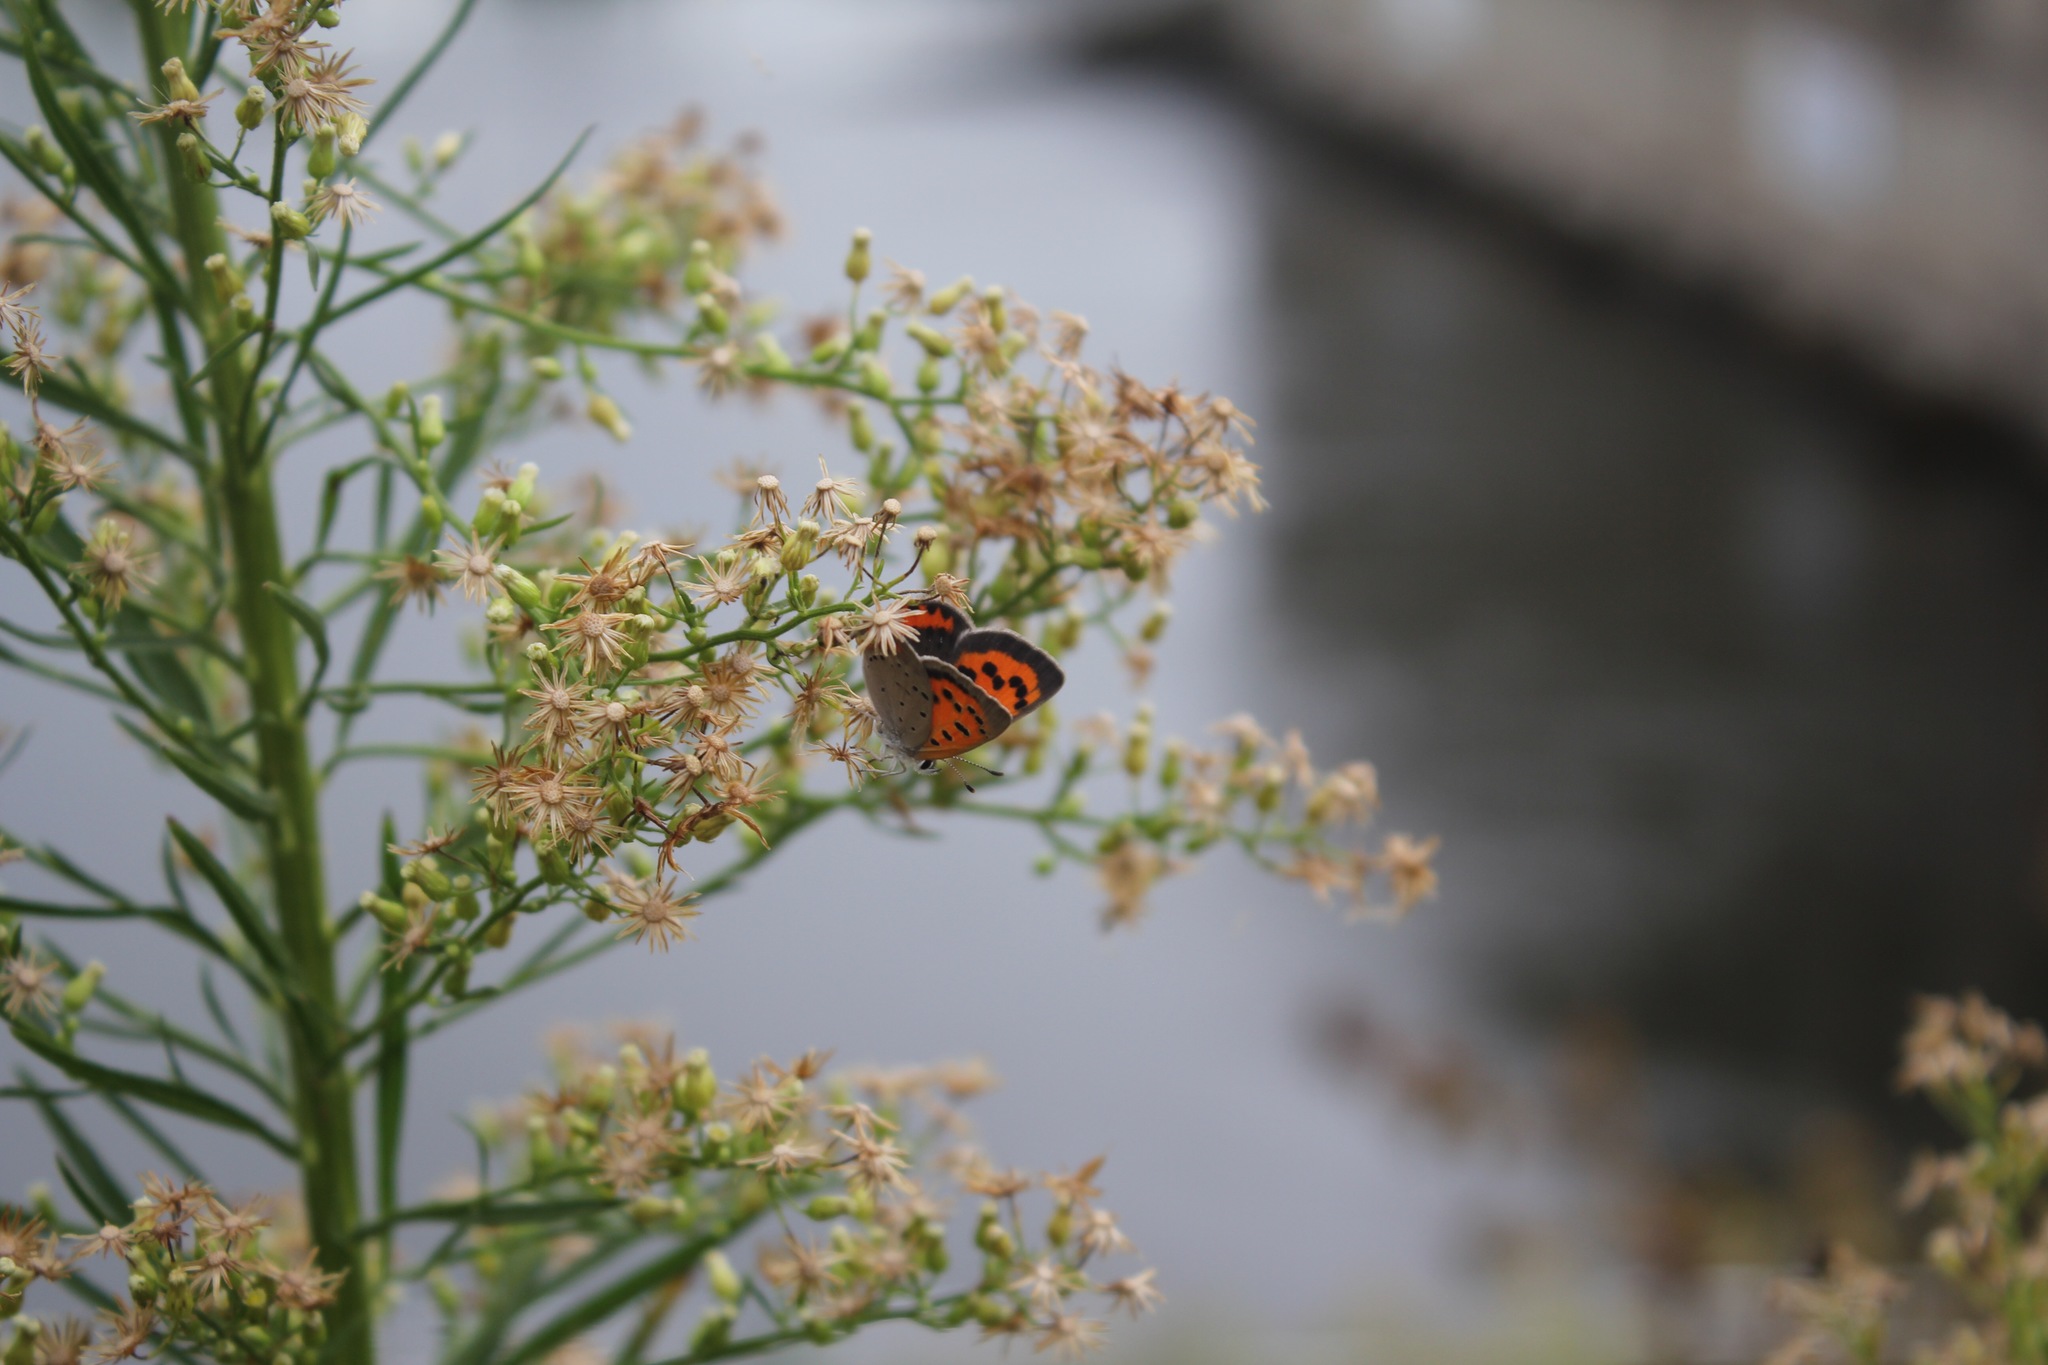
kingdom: Animalia
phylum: Arthropoda
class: Insecta
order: Lepidoptera
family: Lycaenidae
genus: Lycaena
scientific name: Lycaena hypophlaeas
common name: American copper
